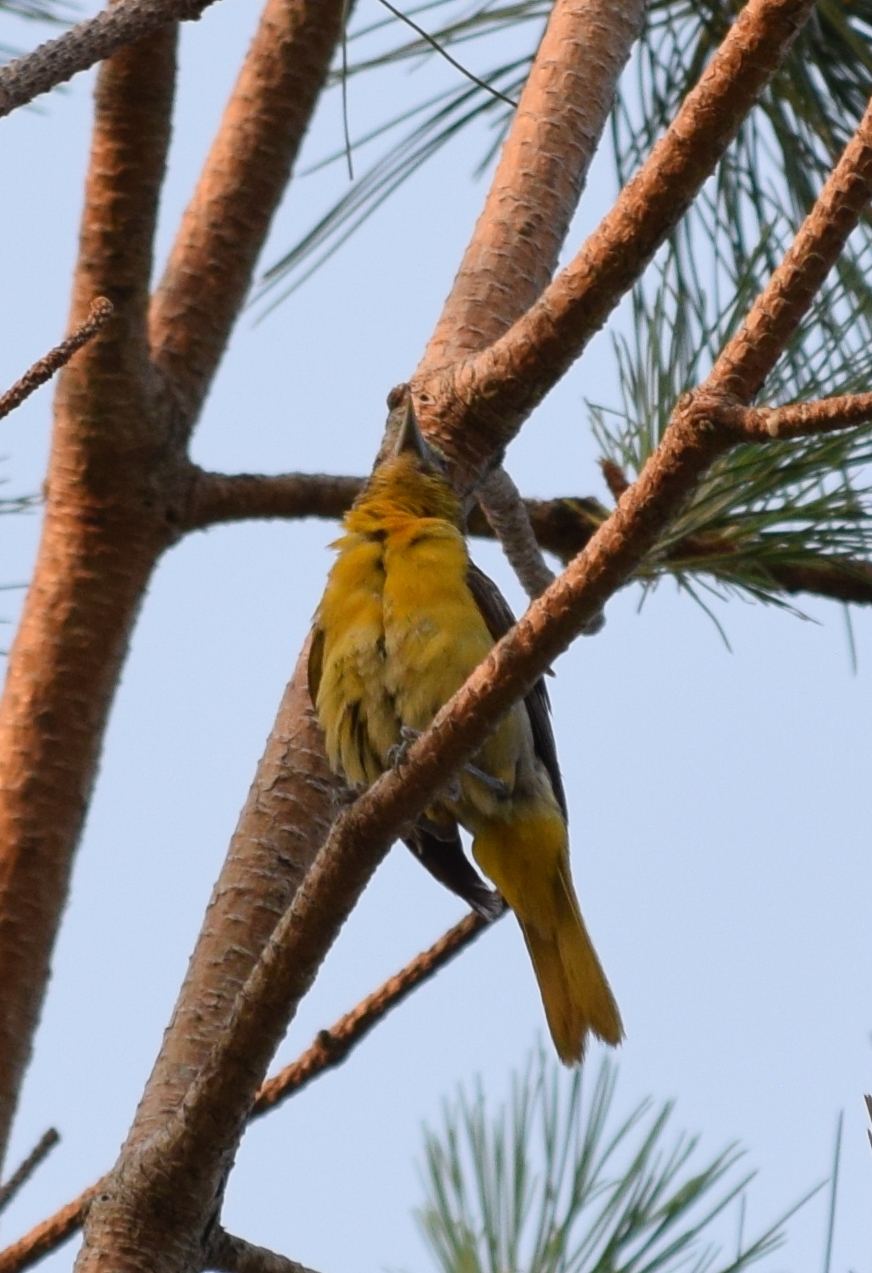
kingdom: Animalia
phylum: Chordata
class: Aves
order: Passeriformes
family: Icteridae
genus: Icterus
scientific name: Icterus galbula
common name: Baltimore oriole
